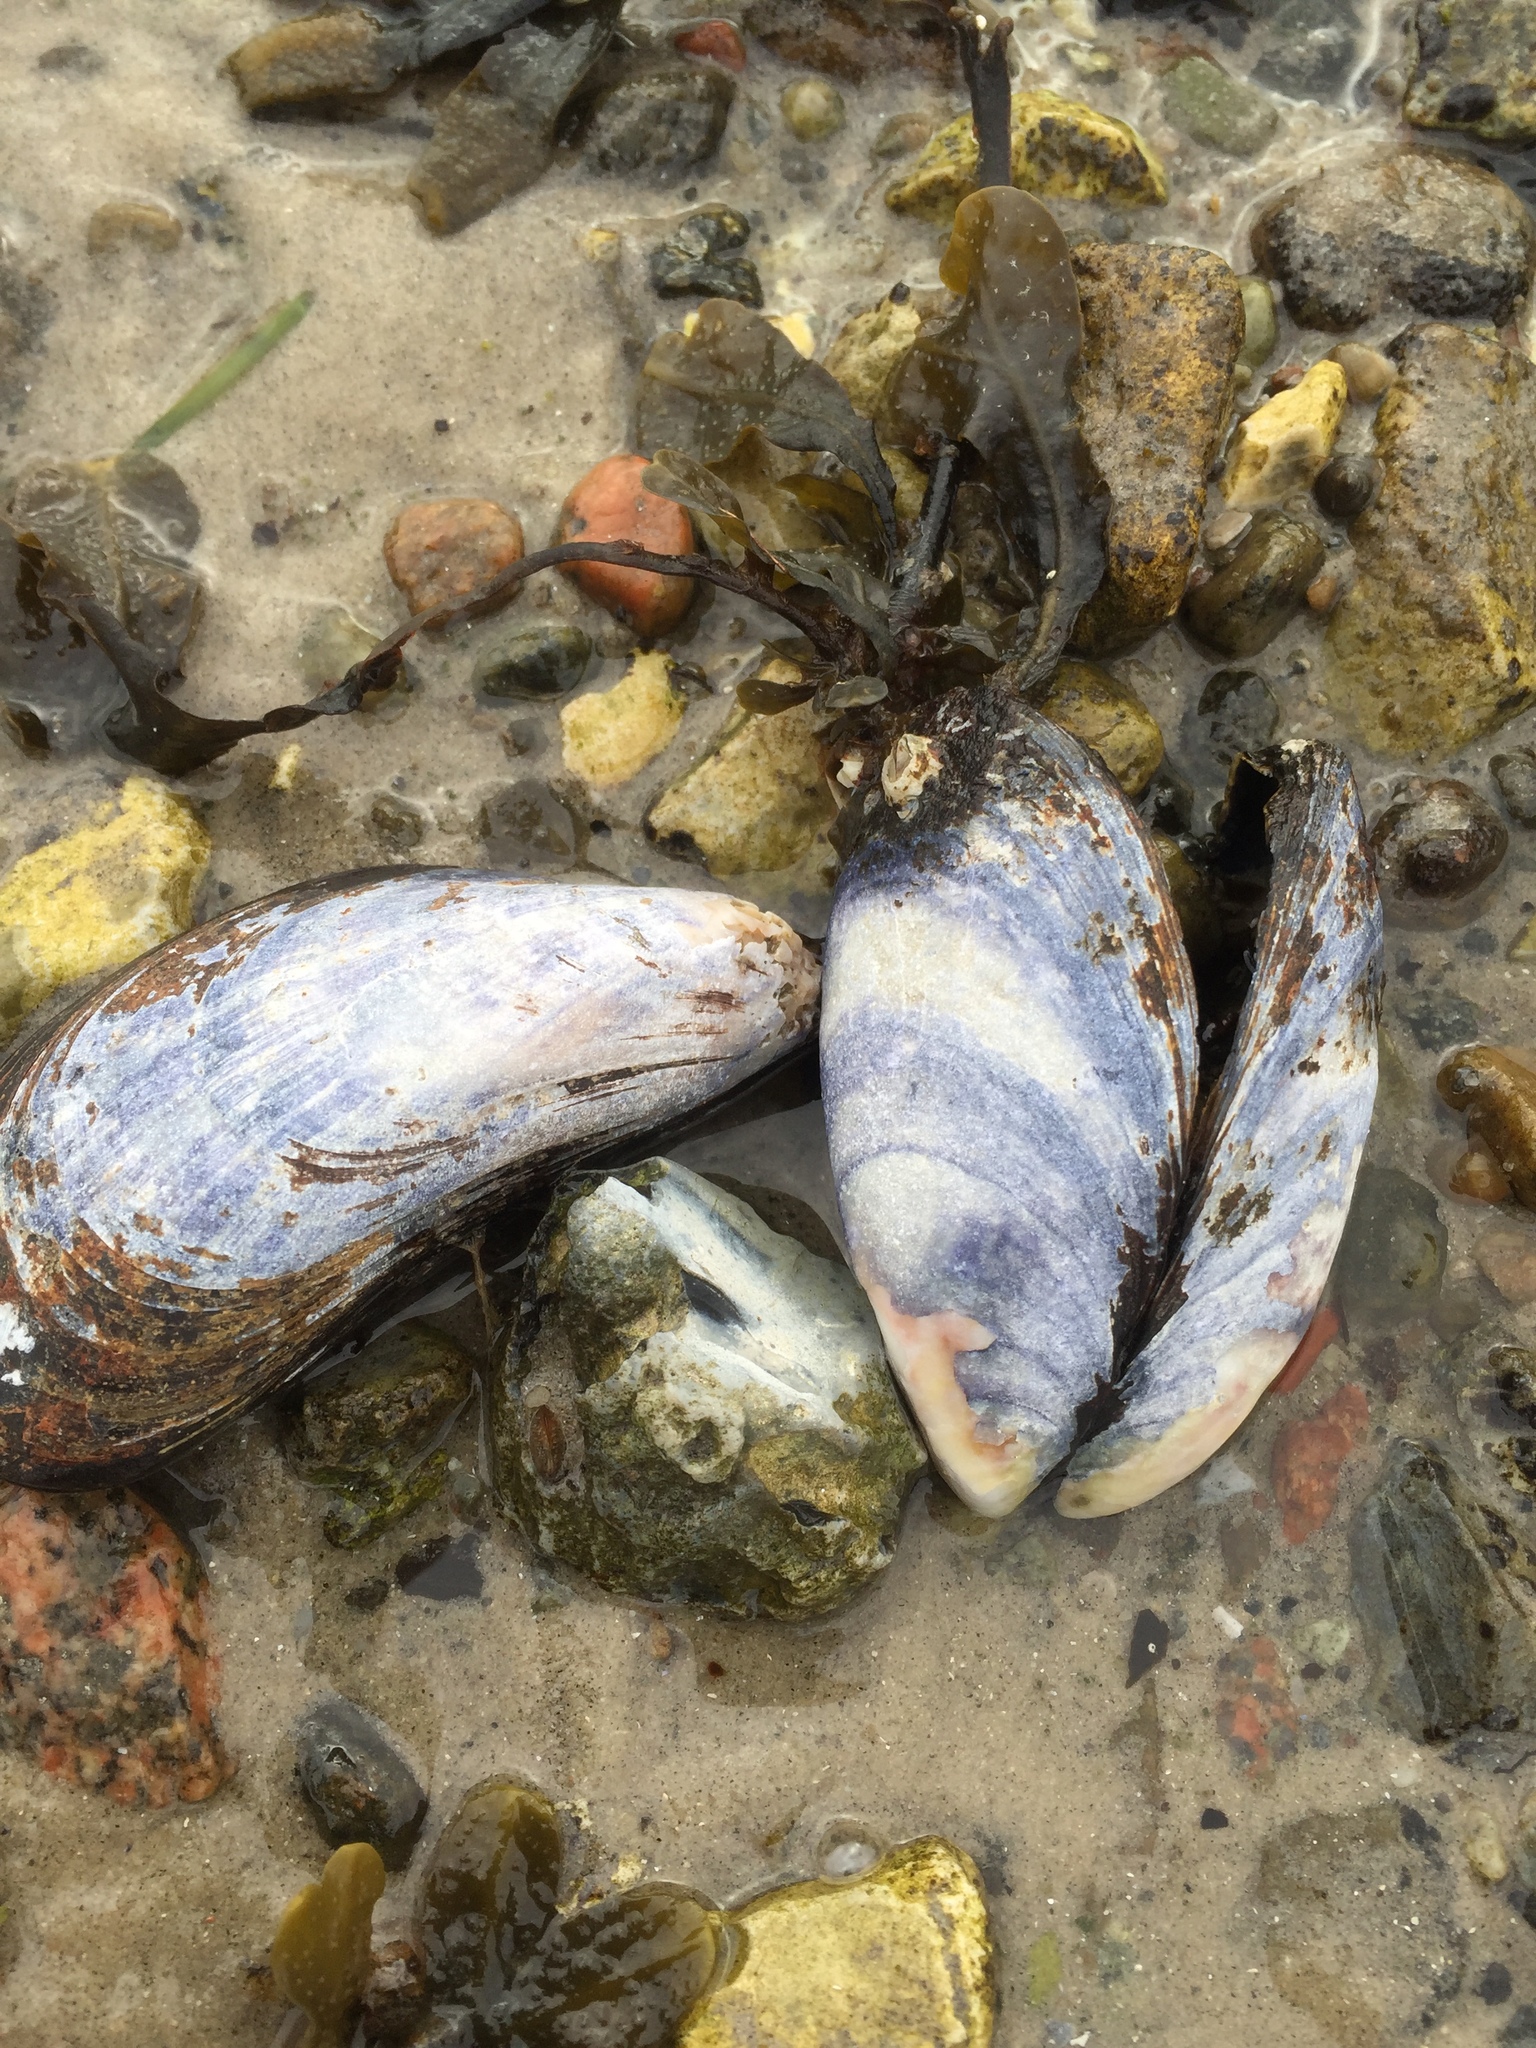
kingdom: Animalia
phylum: Mollusca
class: Bivalvia
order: Mytilida
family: Mytilidae
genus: Mytilus
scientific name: Mytilus edulis
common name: Blue mussel
